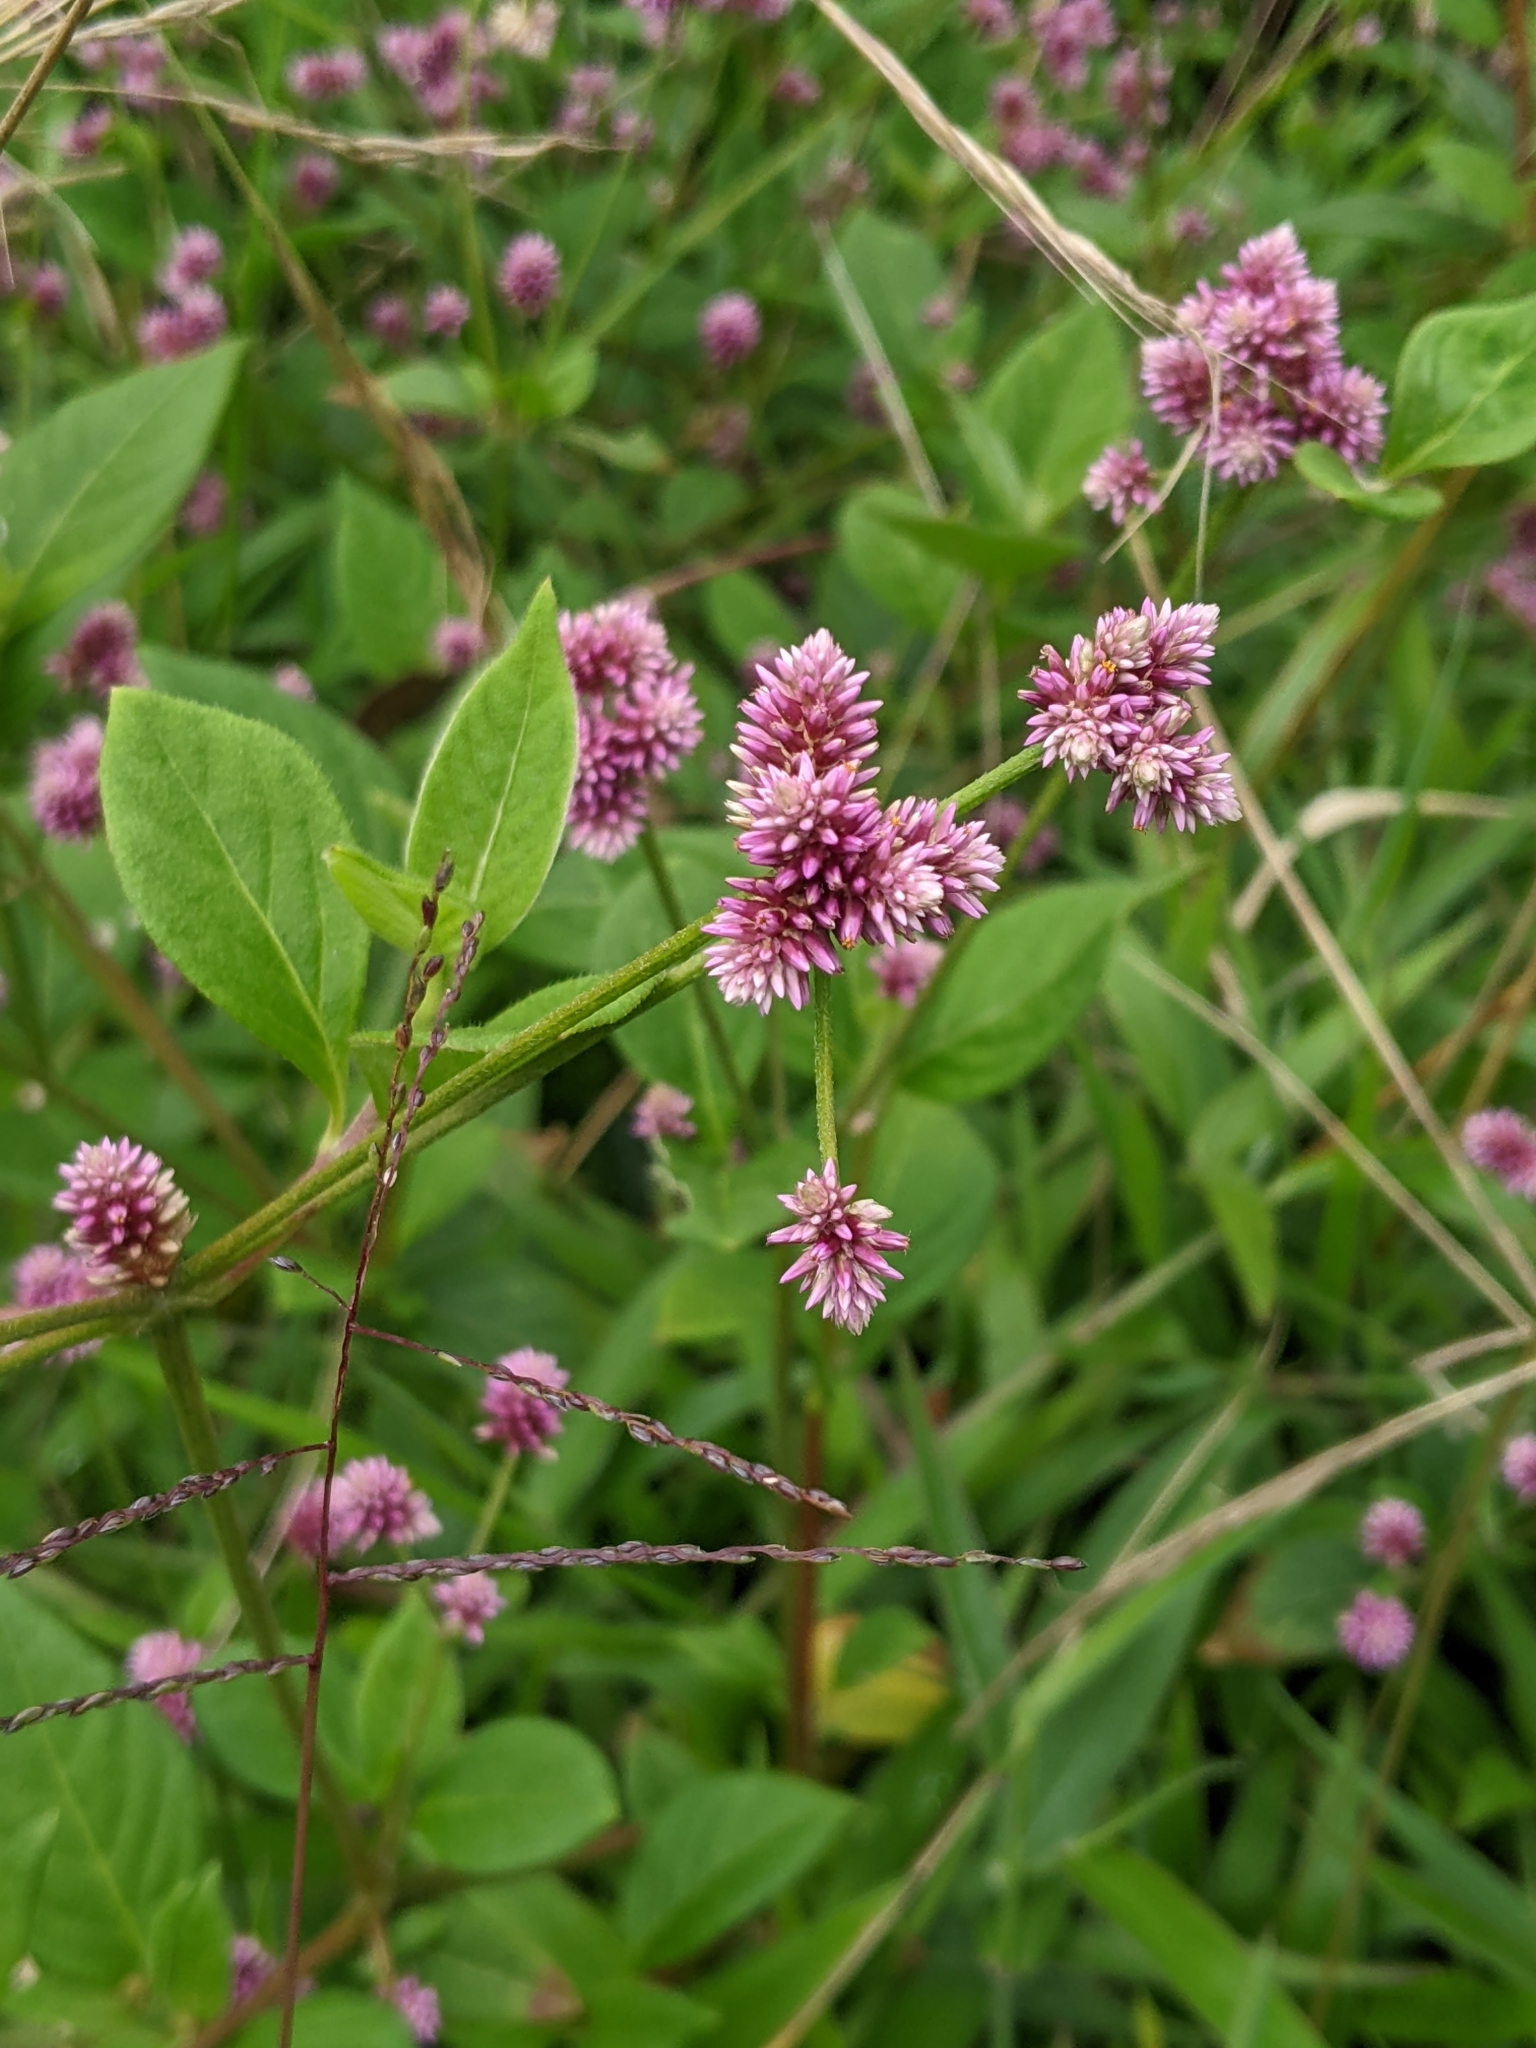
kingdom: Plantae
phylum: Tracheophyta
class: Magnoliopsida
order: Caryophyllales
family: Amaranthaceae
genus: Alternanthera
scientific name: Alternanthera porrigens
